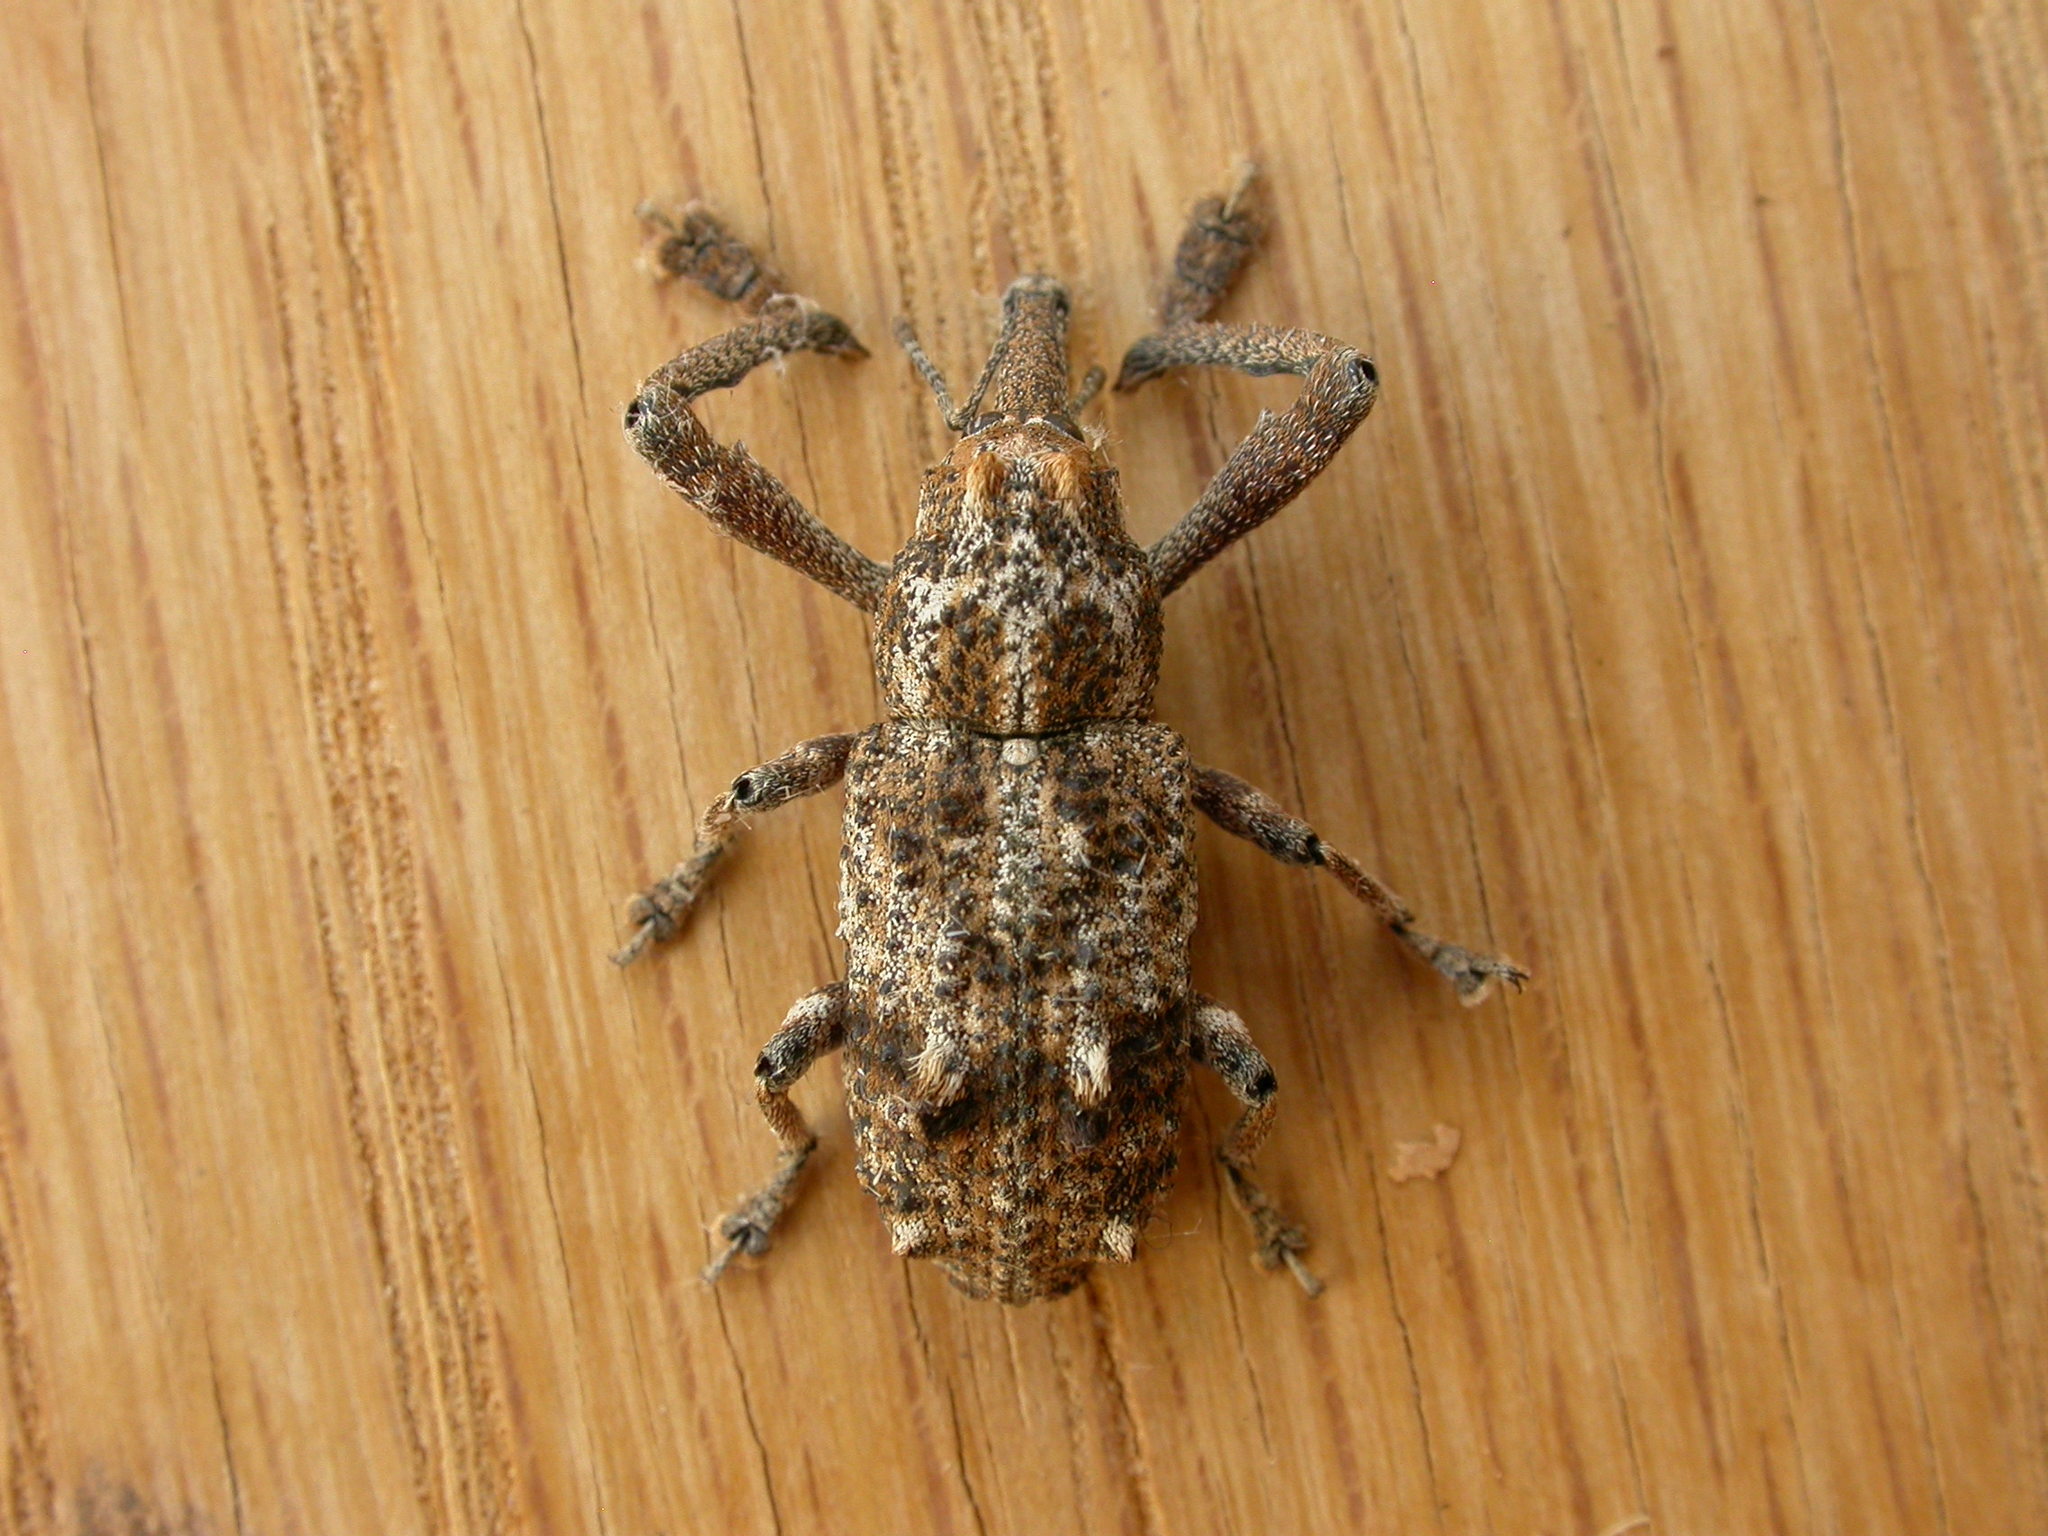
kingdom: Animalia
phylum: Arthropoda
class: Insecta
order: Coleoptera
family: Curculionidae
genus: Orthorhinus
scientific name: Orthorhinus cylindrirostris
